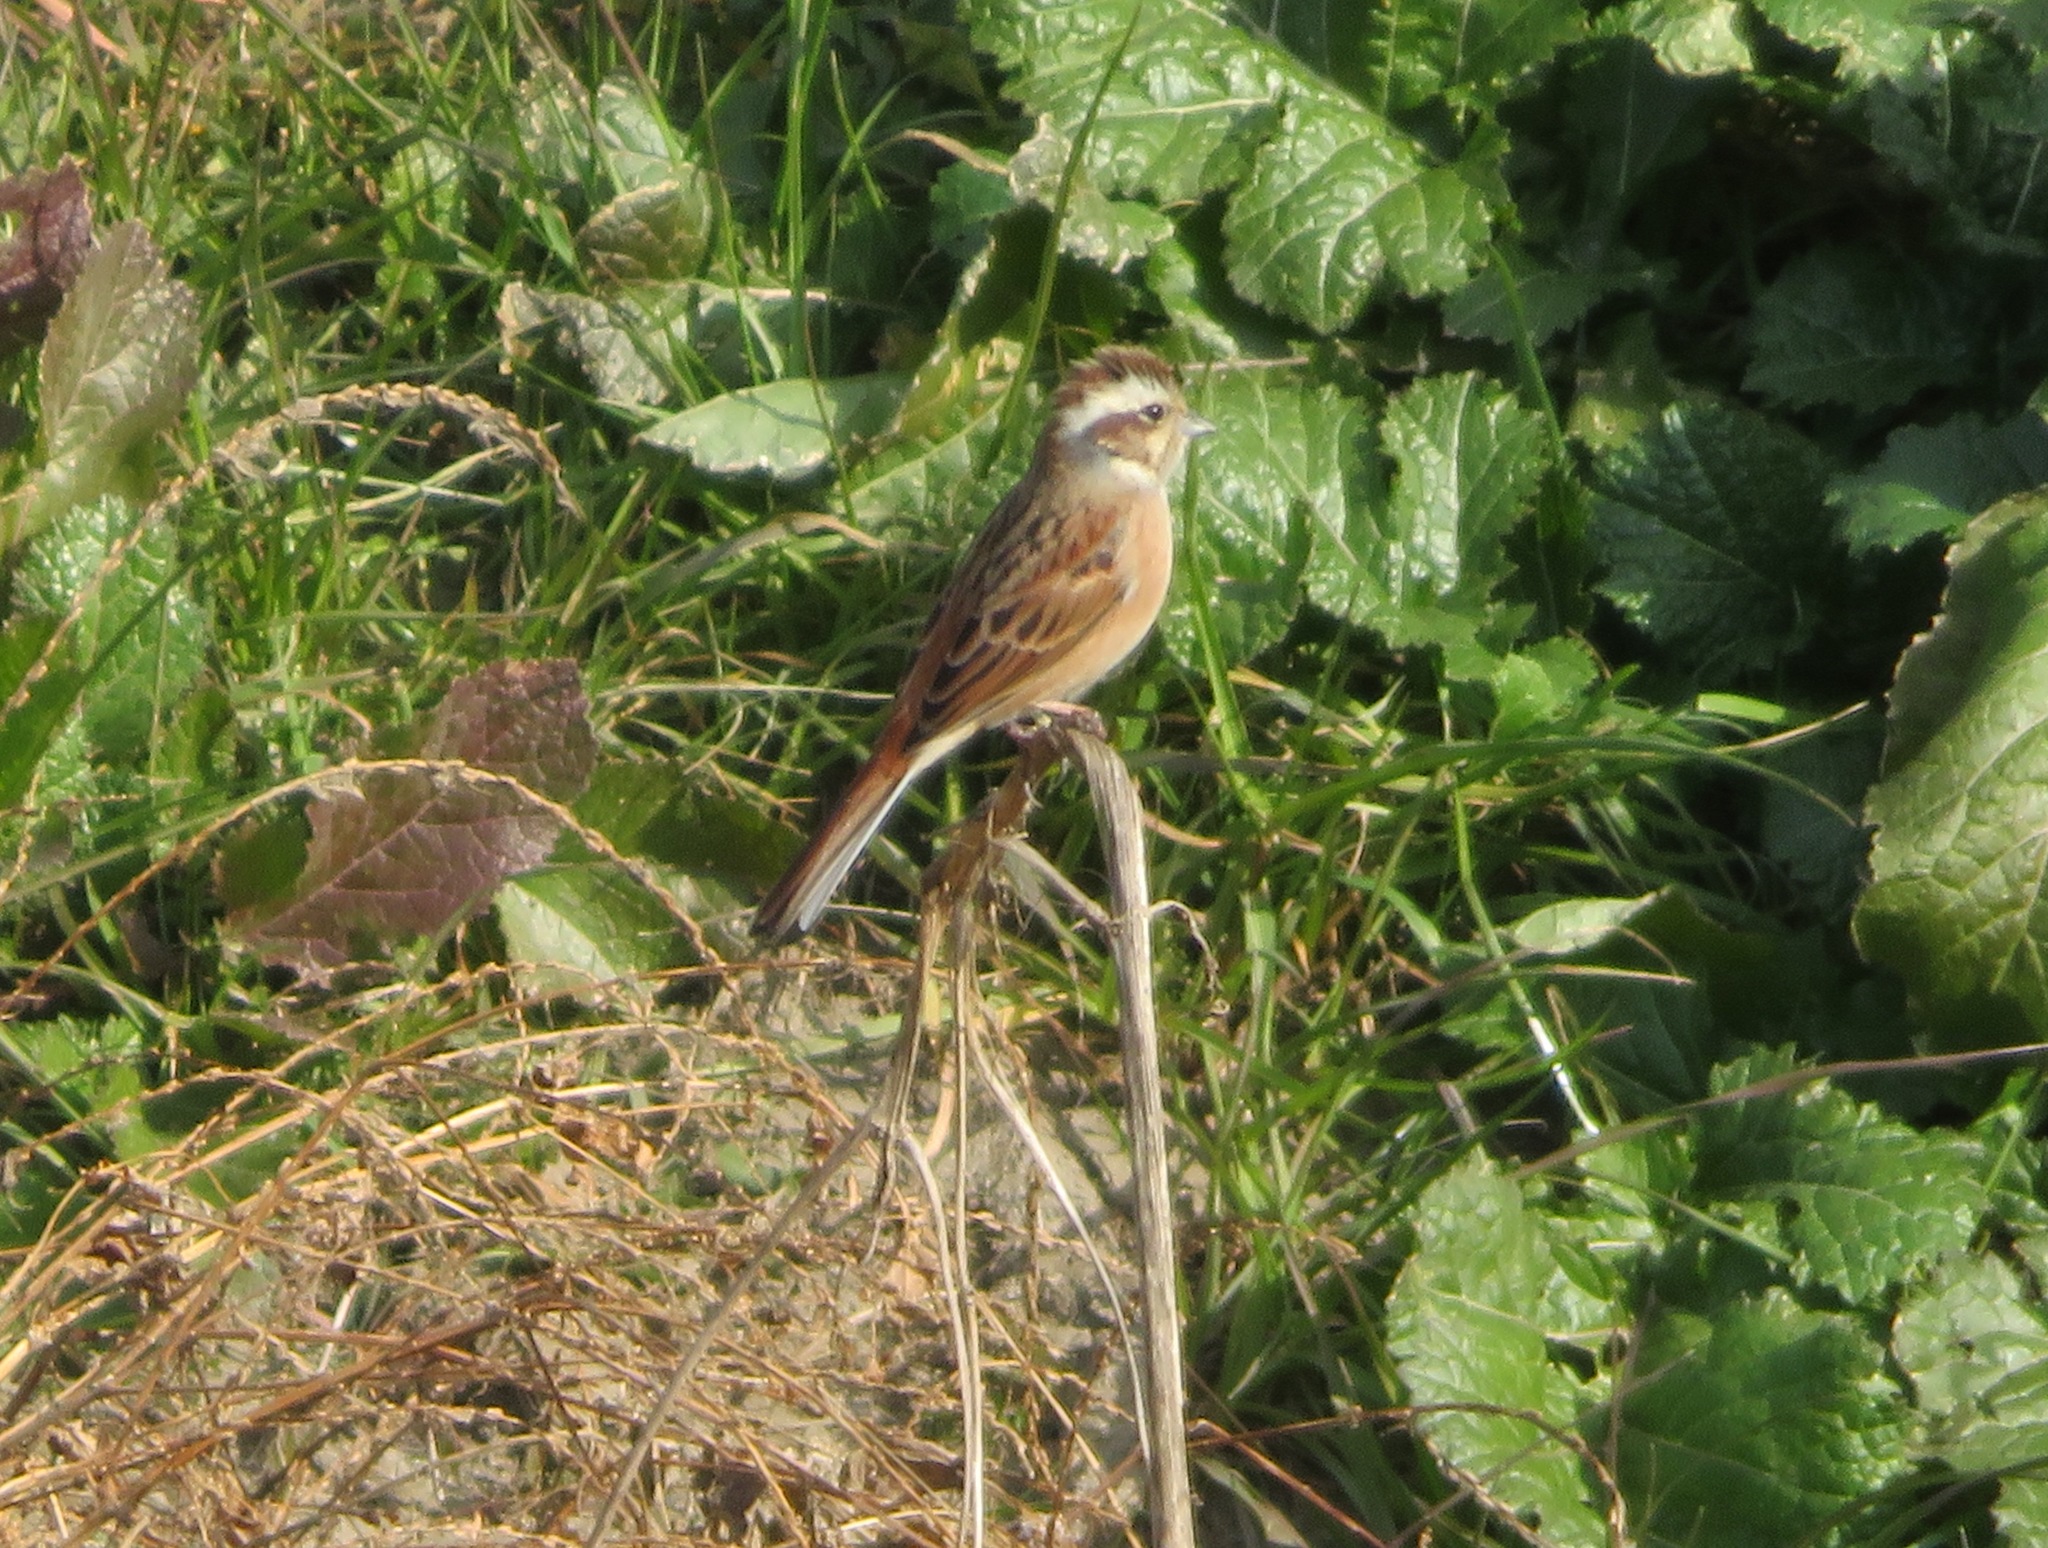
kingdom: Animalia
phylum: Chordata
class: Aves
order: Passeriformes
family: Emberizidae
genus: Emberiza
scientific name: Emberiza cioides
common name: Meadow bunting
